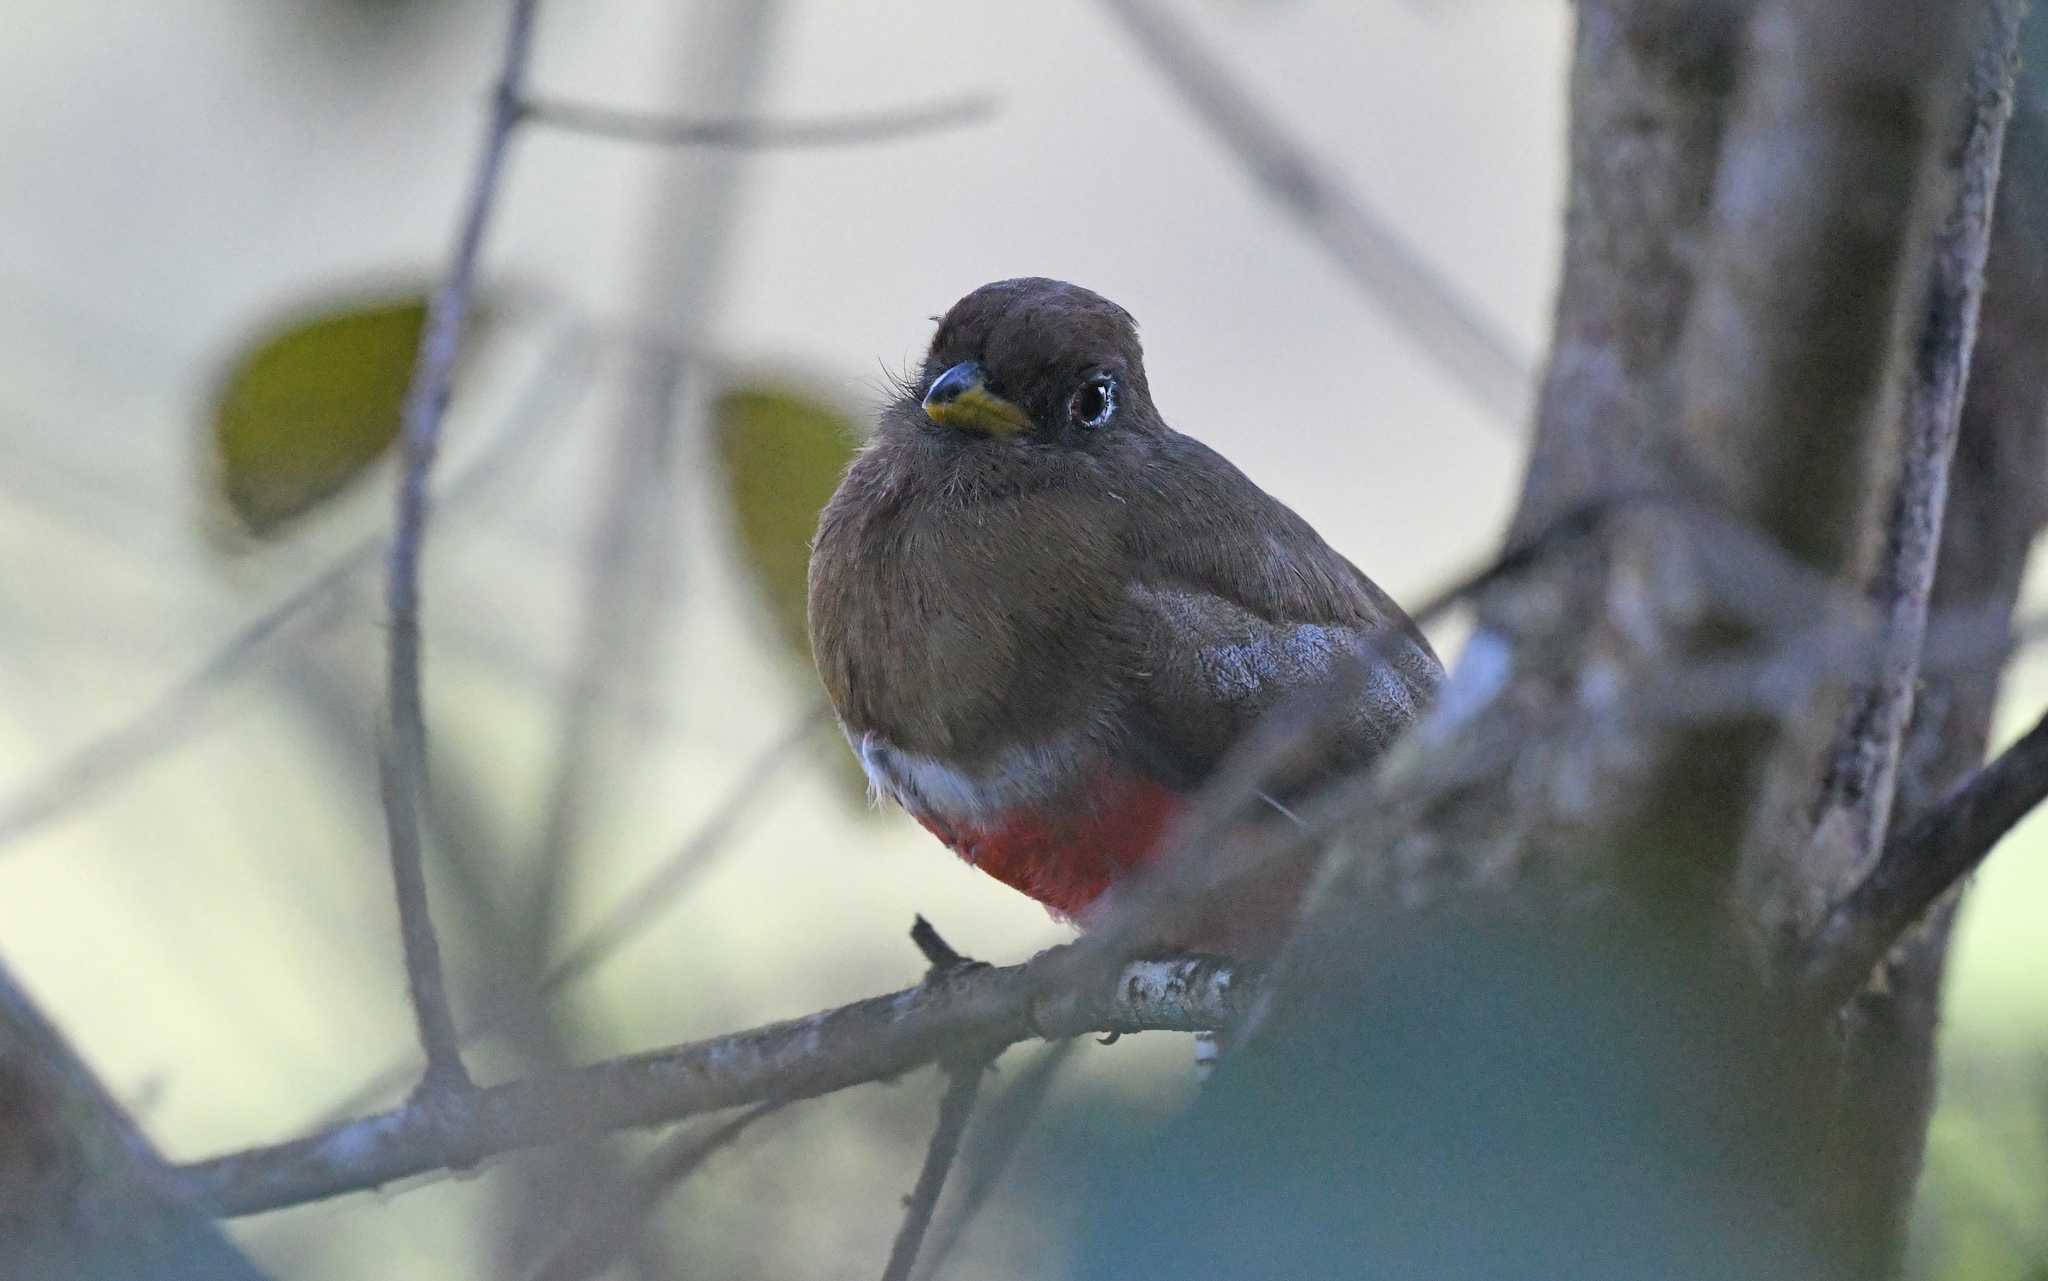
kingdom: Animalia
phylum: Chordata
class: Aves
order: Trogoniformes
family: Trogonidae
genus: Trogon
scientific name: Trogon personatus
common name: Masked trogon
